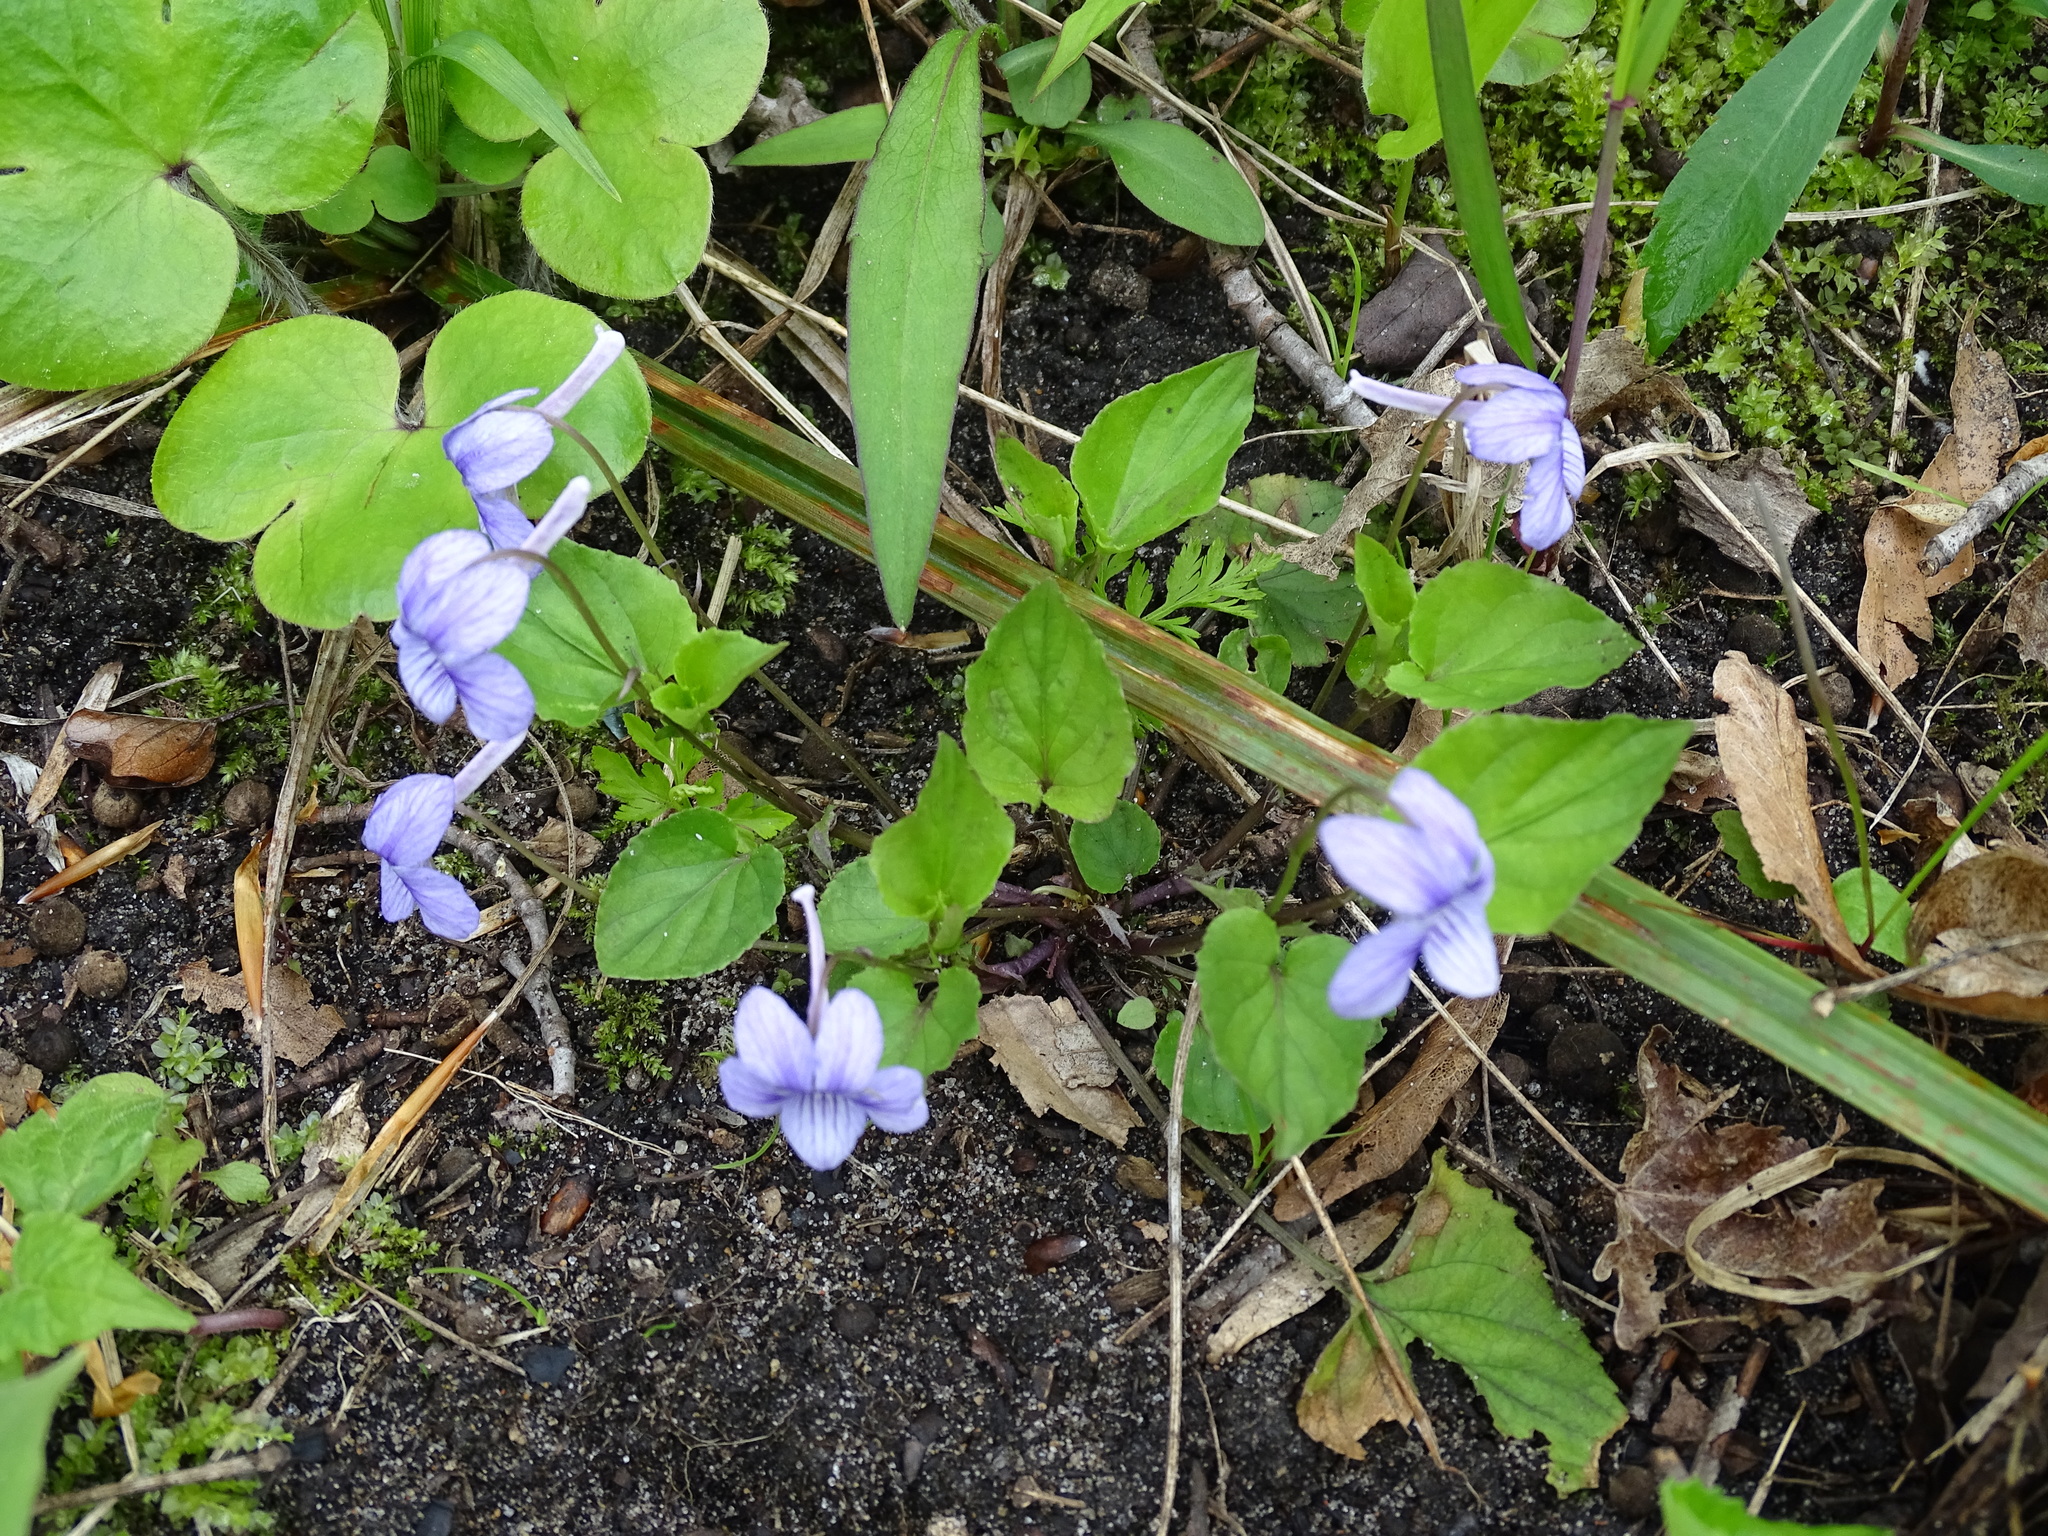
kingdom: Plantae
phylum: Tracheophyta
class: Magnoliopsida
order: Malpighiales
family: Violaceae
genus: Viola
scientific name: Viola rostrata
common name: Long-spur violet
